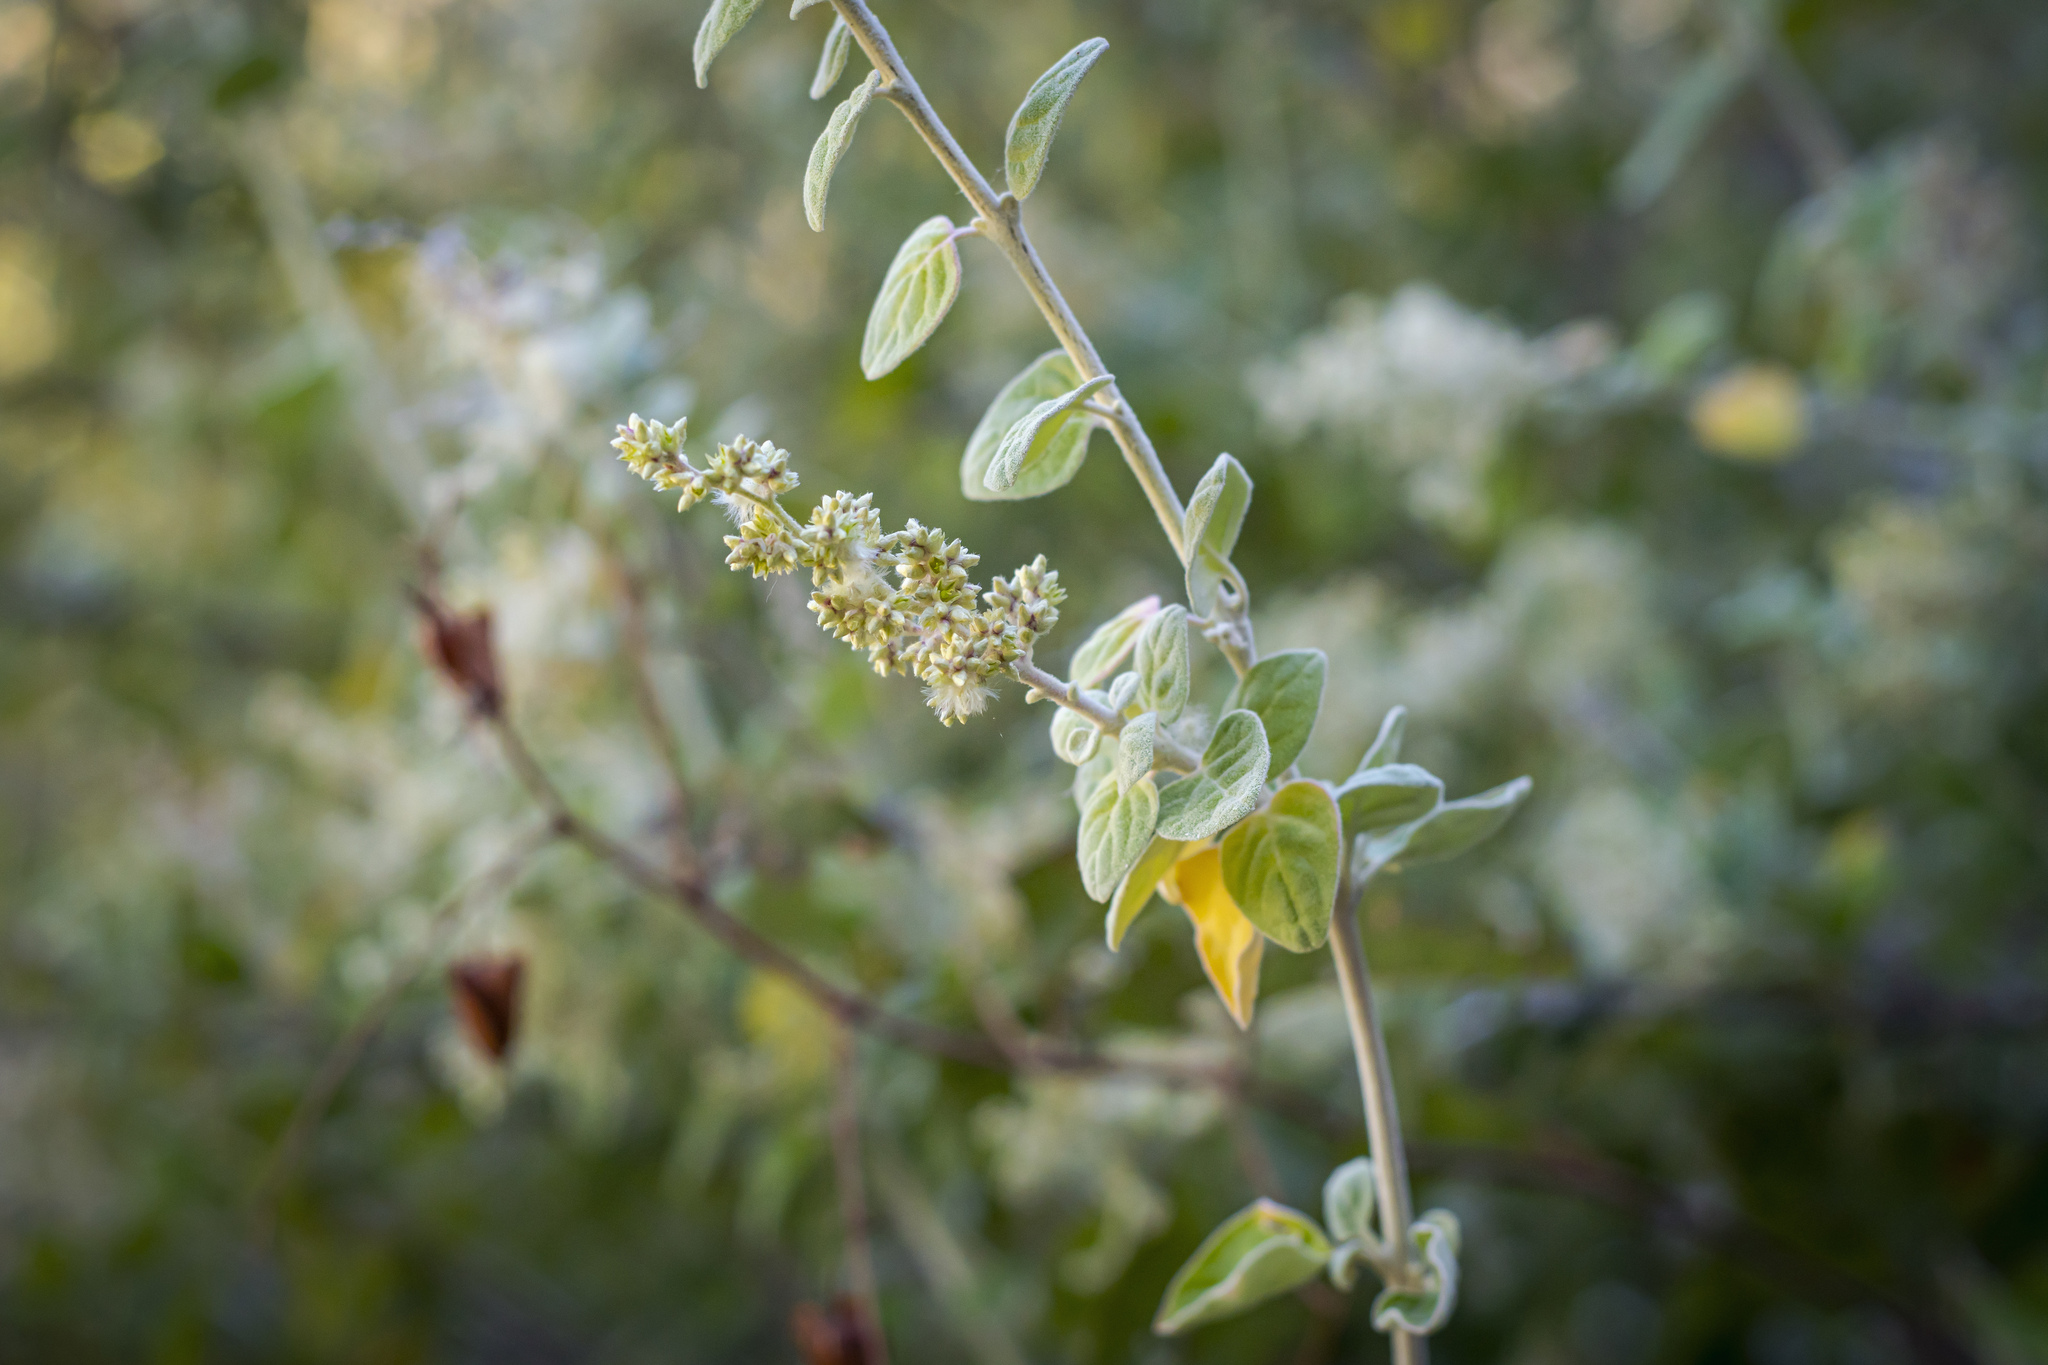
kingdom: Plantae
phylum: Tracheophyta
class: Magnoliopsida
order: Caryophyllales
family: Amaranthaceae
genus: Iresine
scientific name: Iresine alternifolia
